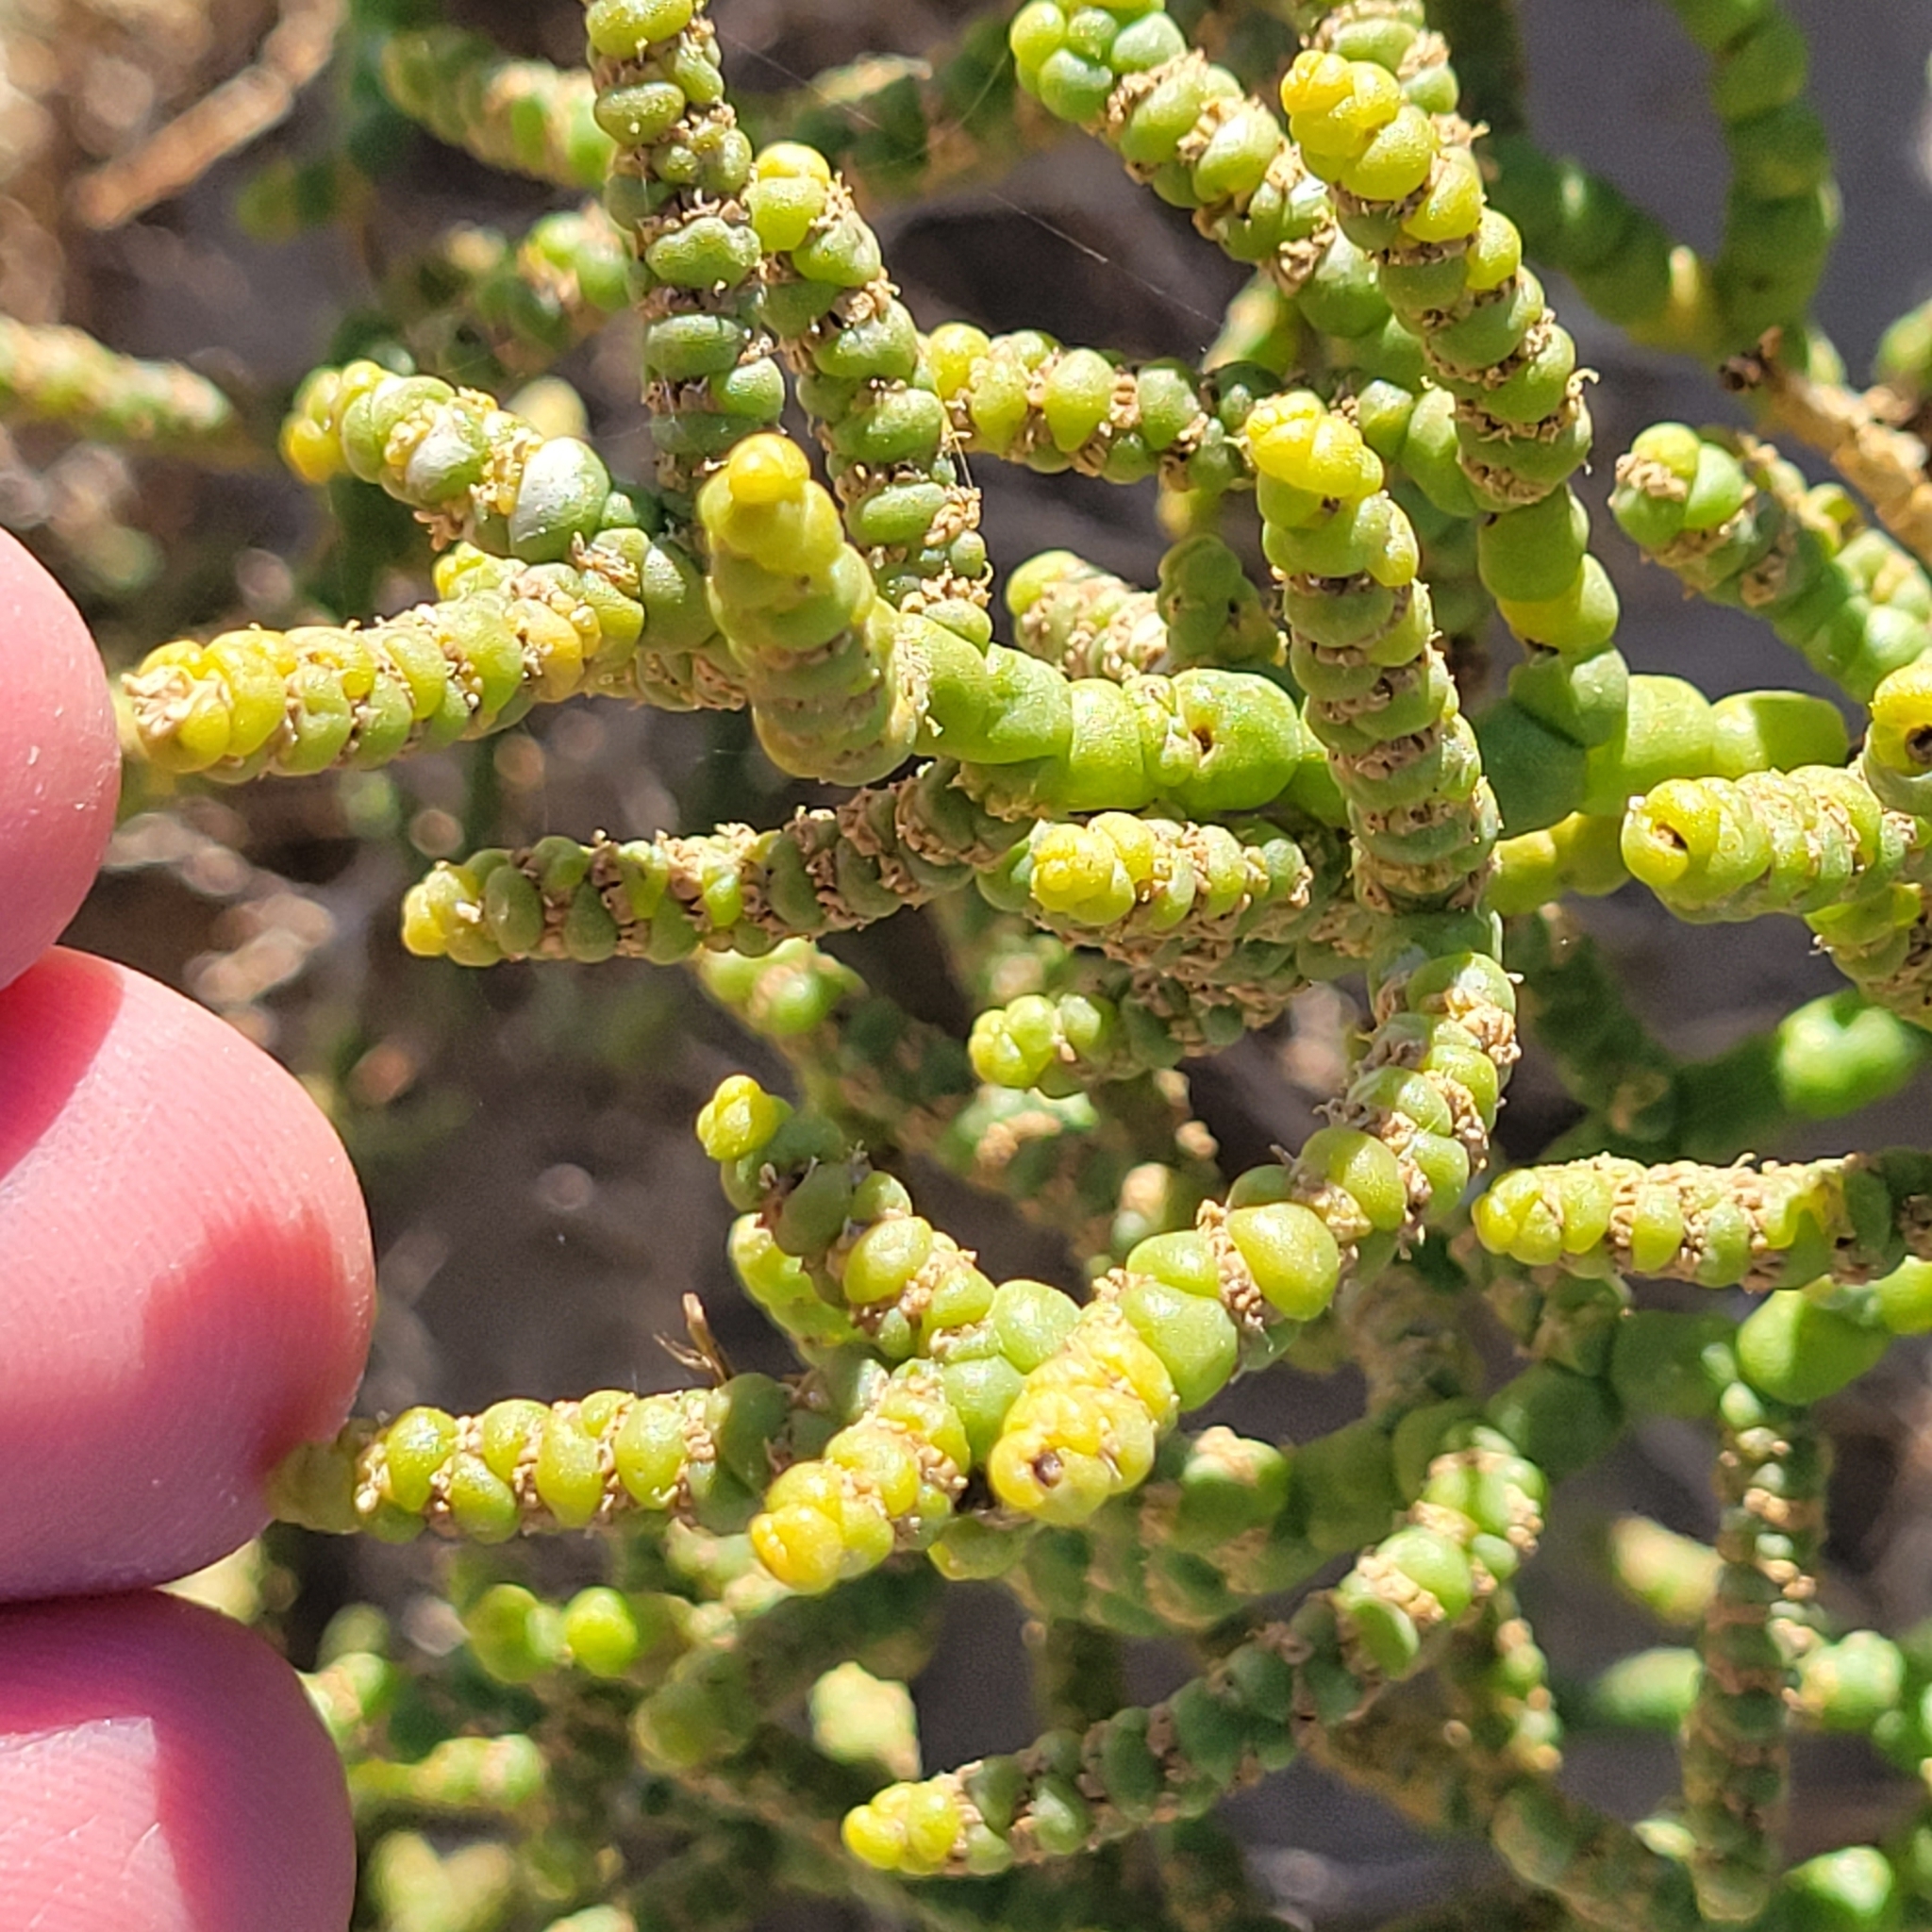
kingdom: Plantae
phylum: Tracheophyta
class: Magnoliopsida
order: Caryophyllales
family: Amaranthaceae
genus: Allenrolfea
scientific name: Allenrolfea occidentalis
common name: Iodine-bush
